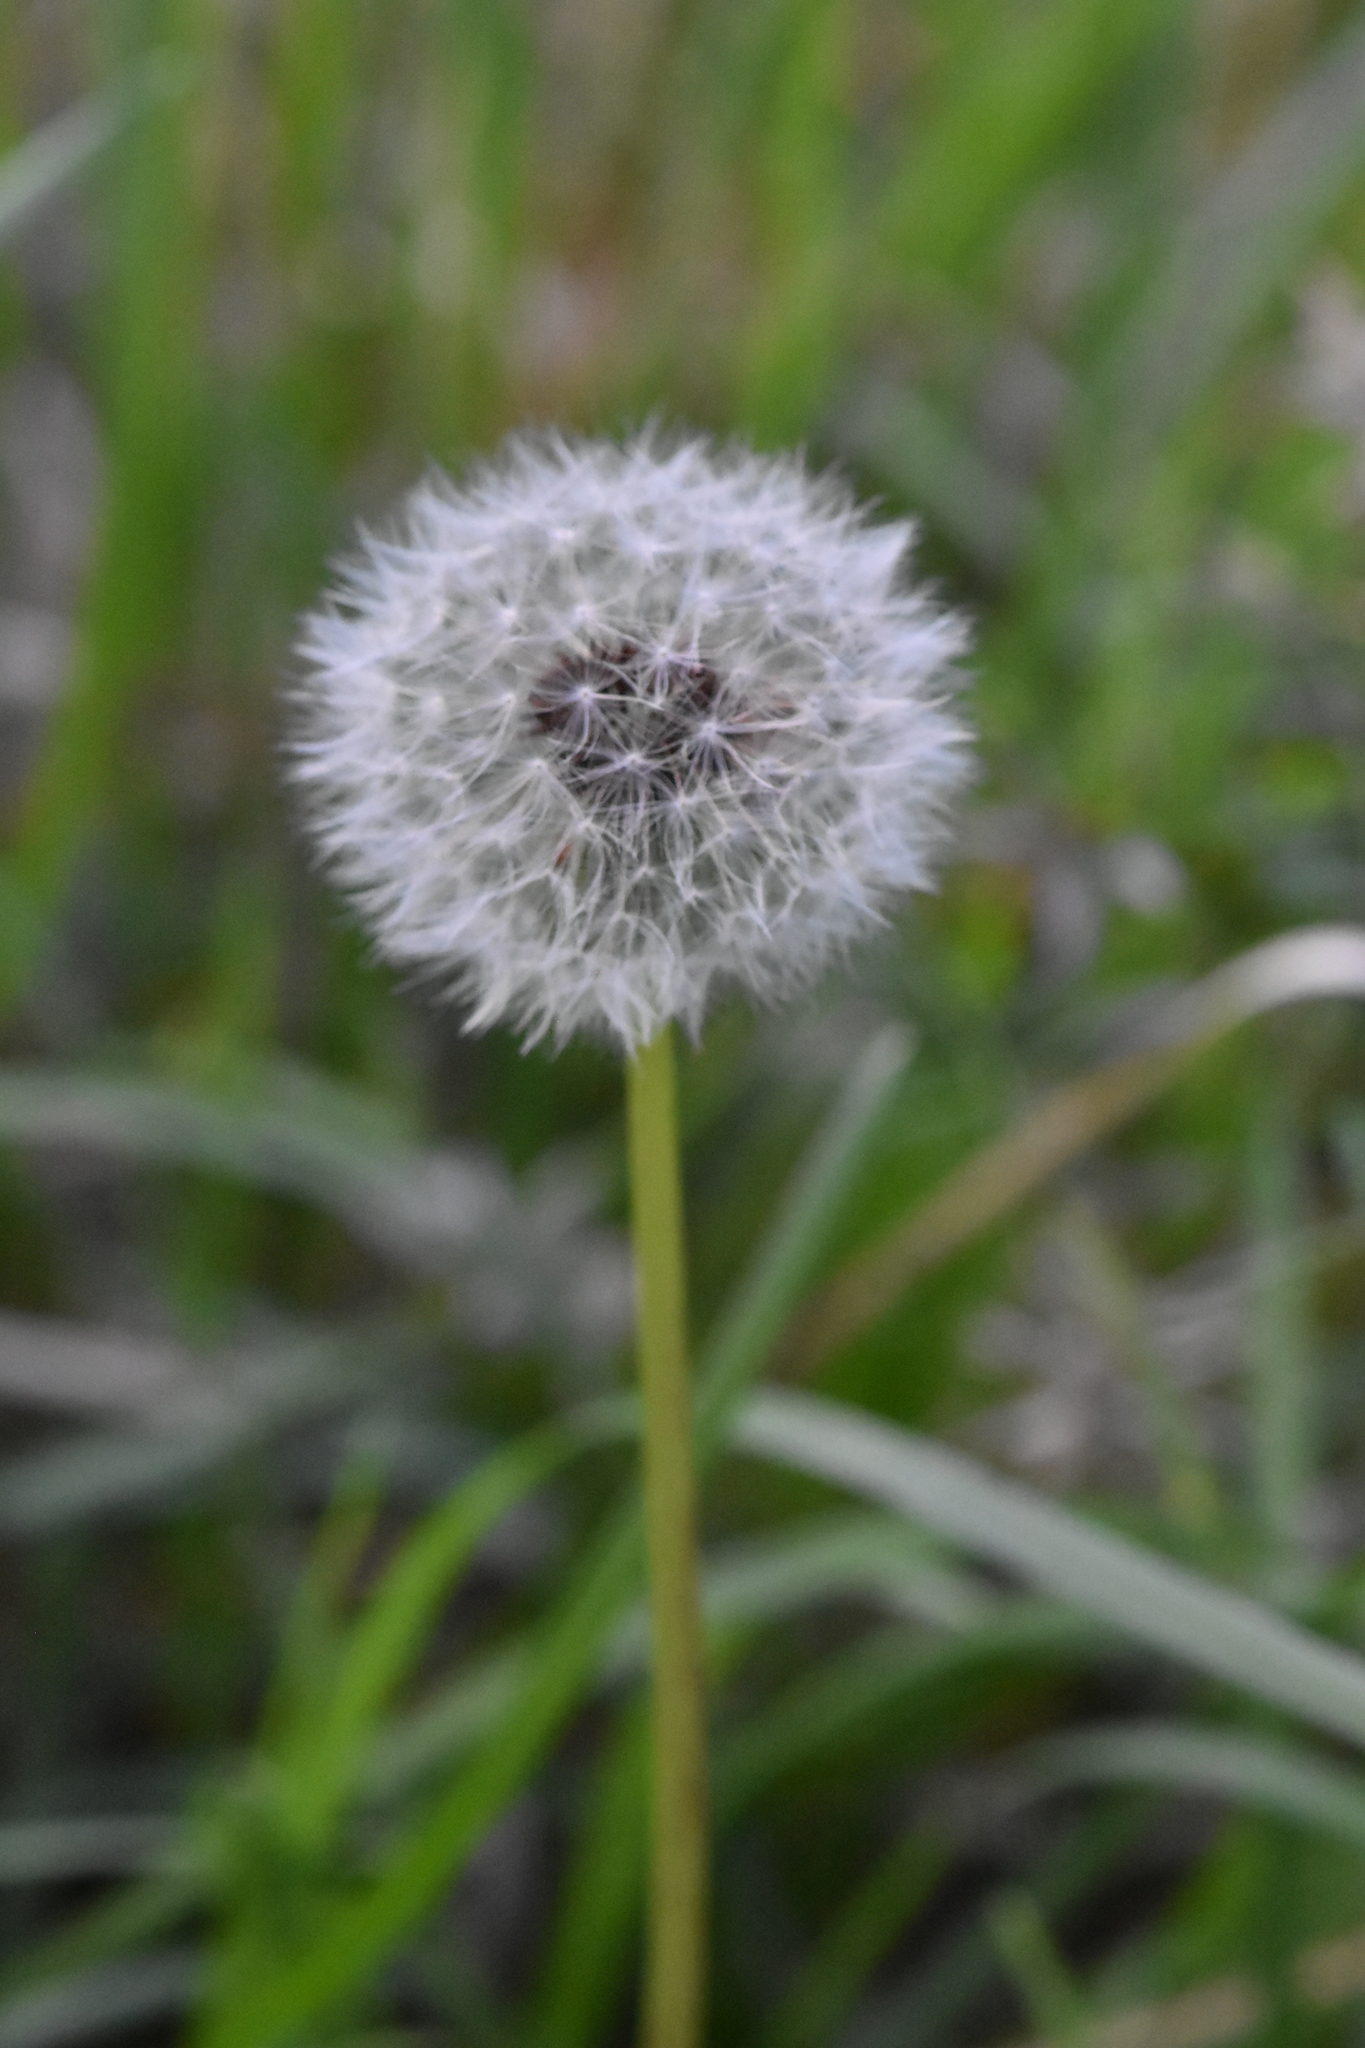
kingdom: Plantae
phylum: Tracheophyta
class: Magnoliopsida
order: Asterales
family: Asteraceae
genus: Taraxacum
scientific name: Taraxacum officinale
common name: Common dandelion
